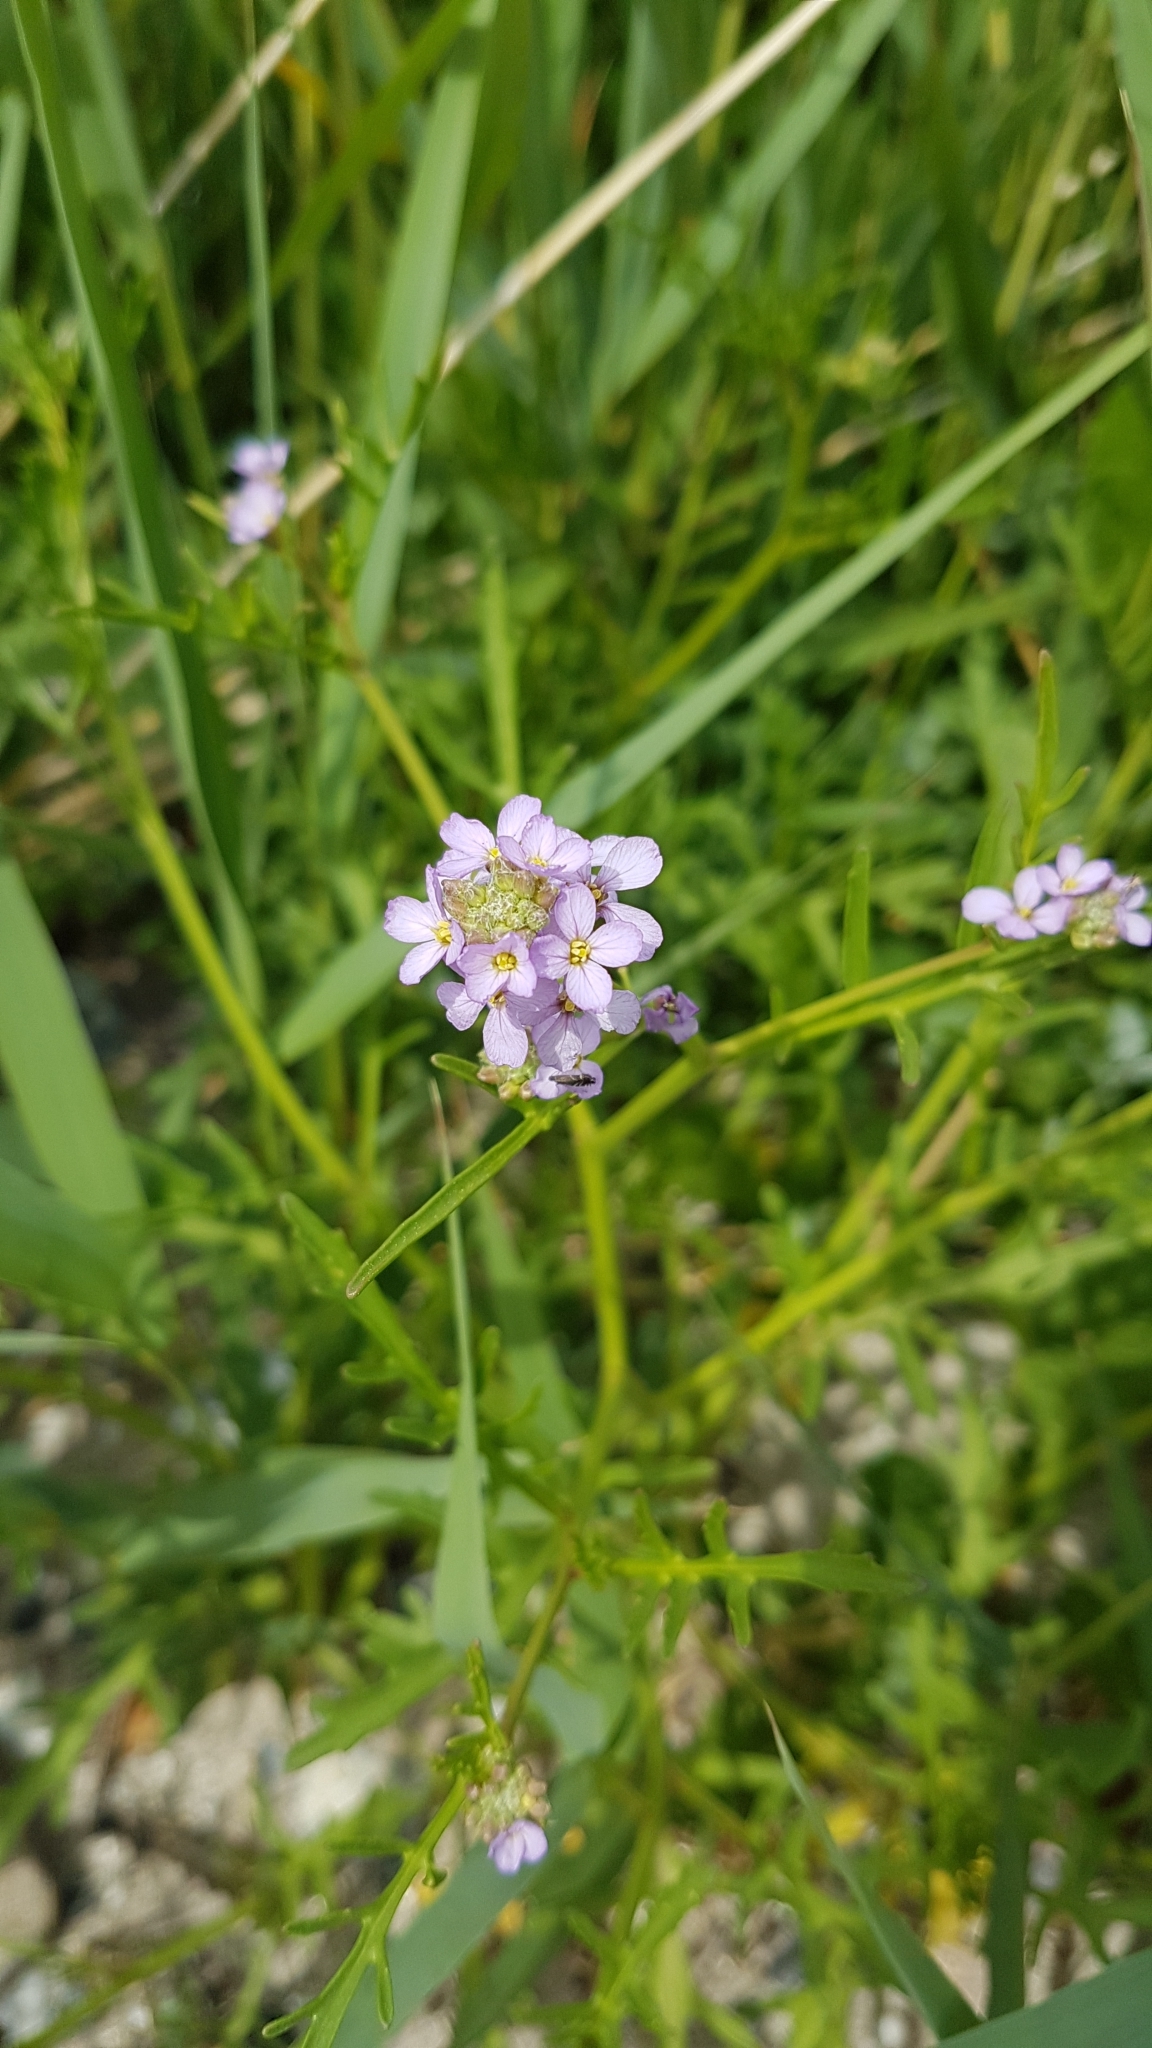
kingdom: Plantae
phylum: Tracheophyta
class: Magnoliopsida
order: Brassicales
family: Brassicaceae
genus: Cakile
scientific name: Cakile maritima
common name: Sea rocket
